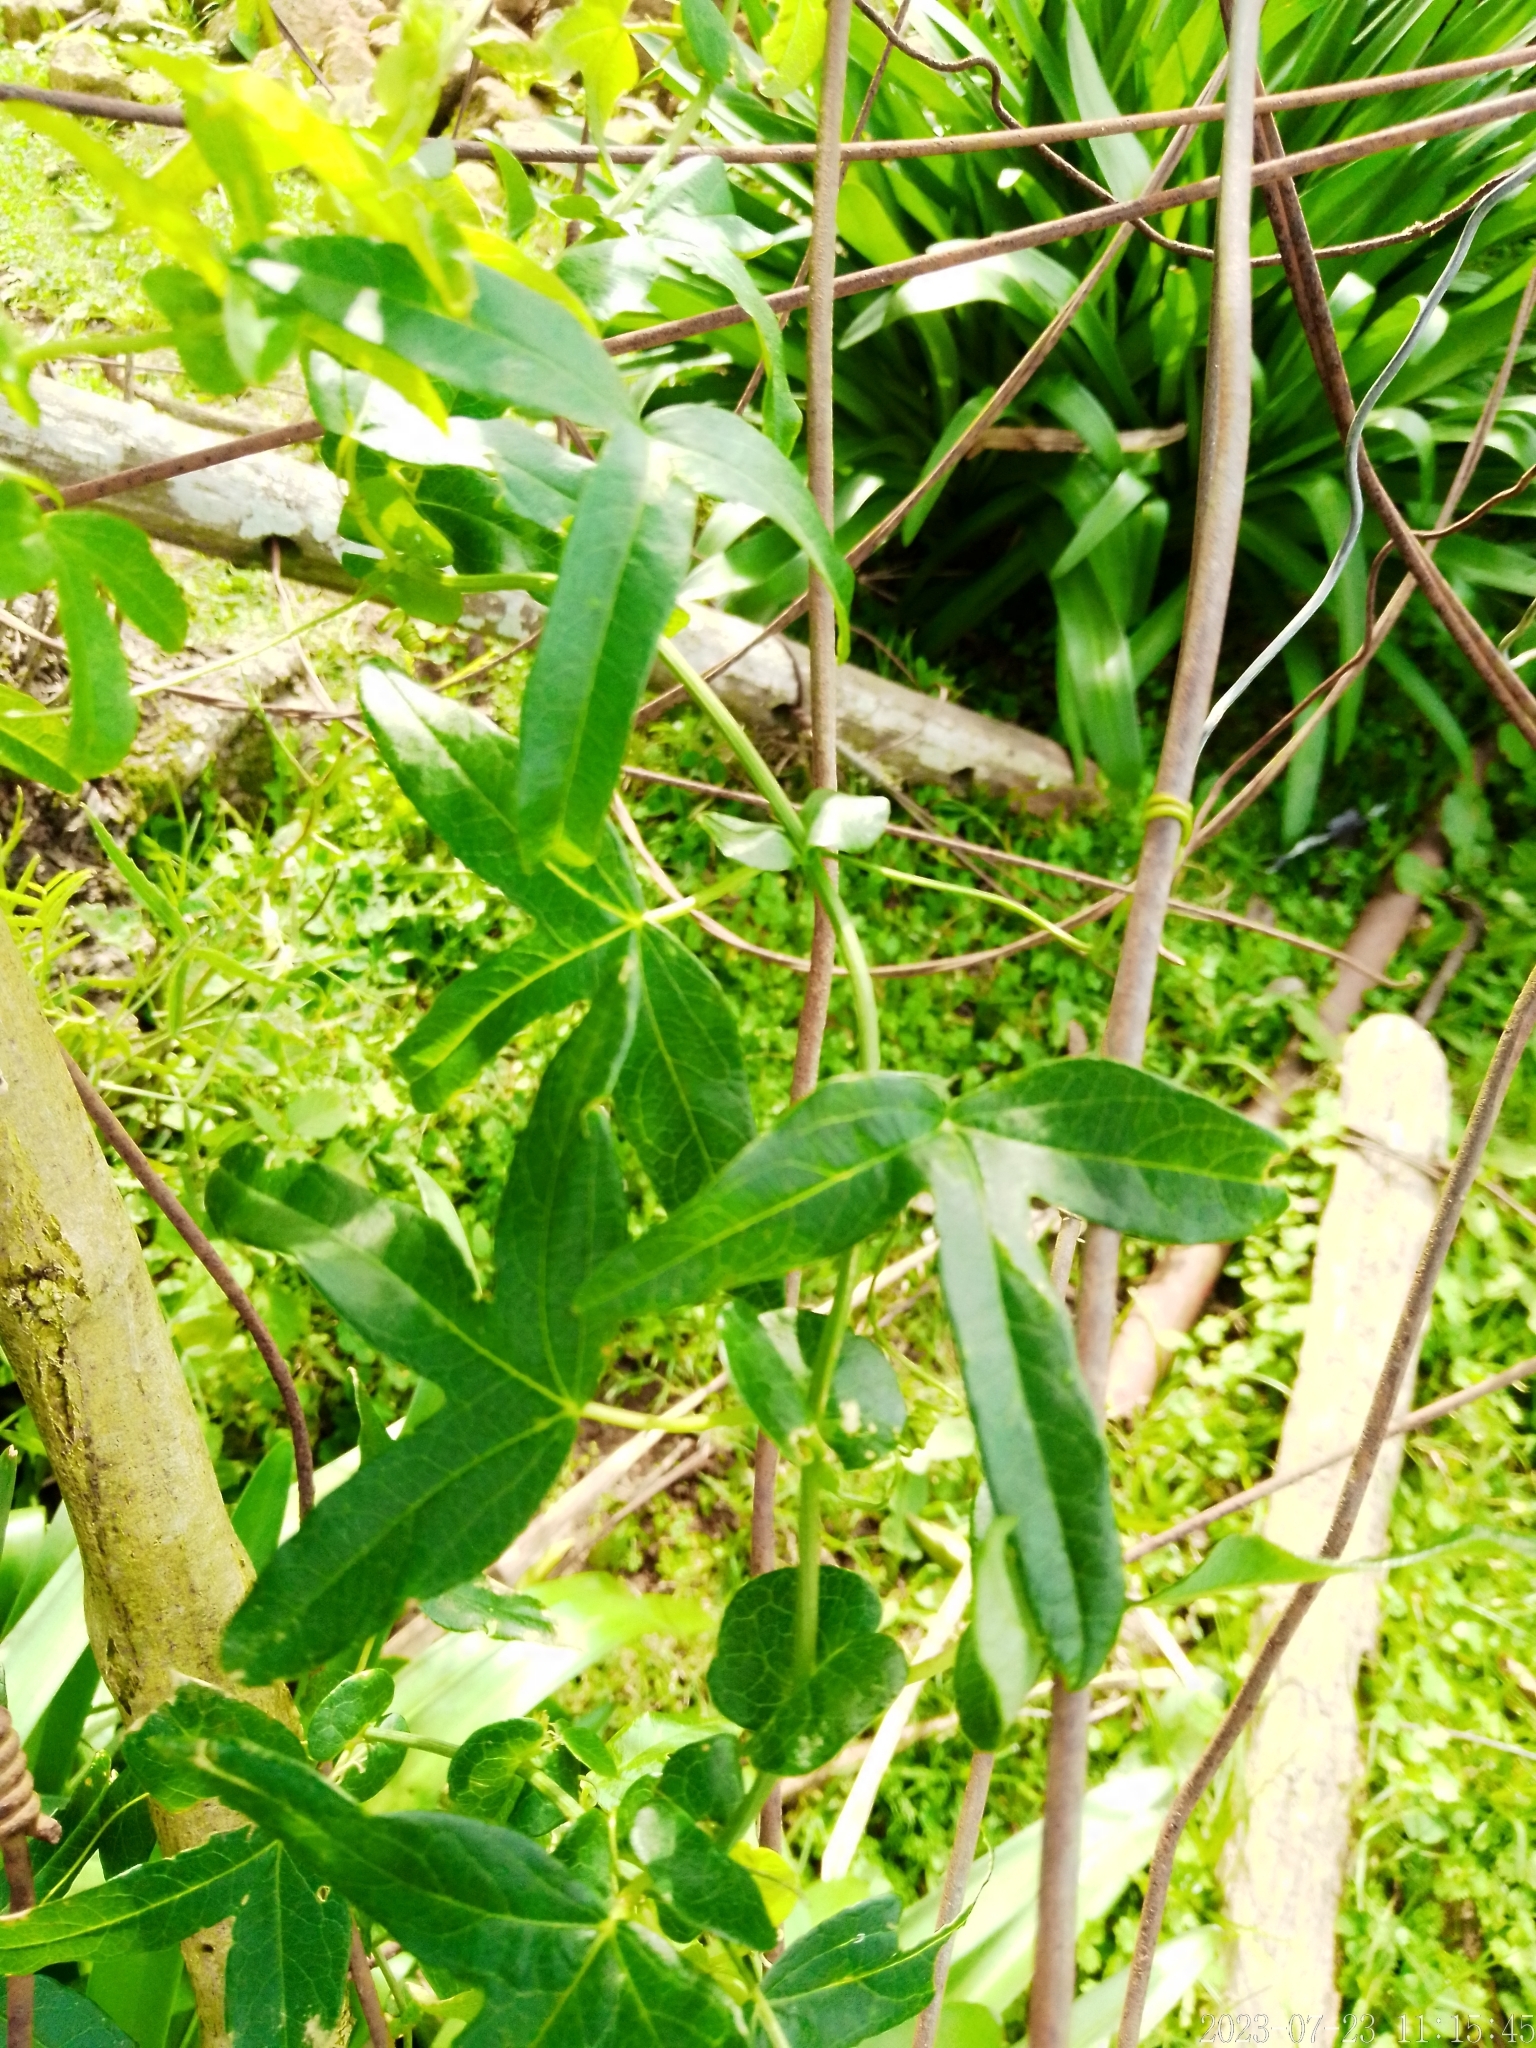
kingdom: Plantae
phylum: Tracheophyta
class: Magnoliopsida
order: Malpighiales
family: Passifloraceae
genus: Passiflora
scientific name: Passiflora caerulea
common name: Blue passionflower
